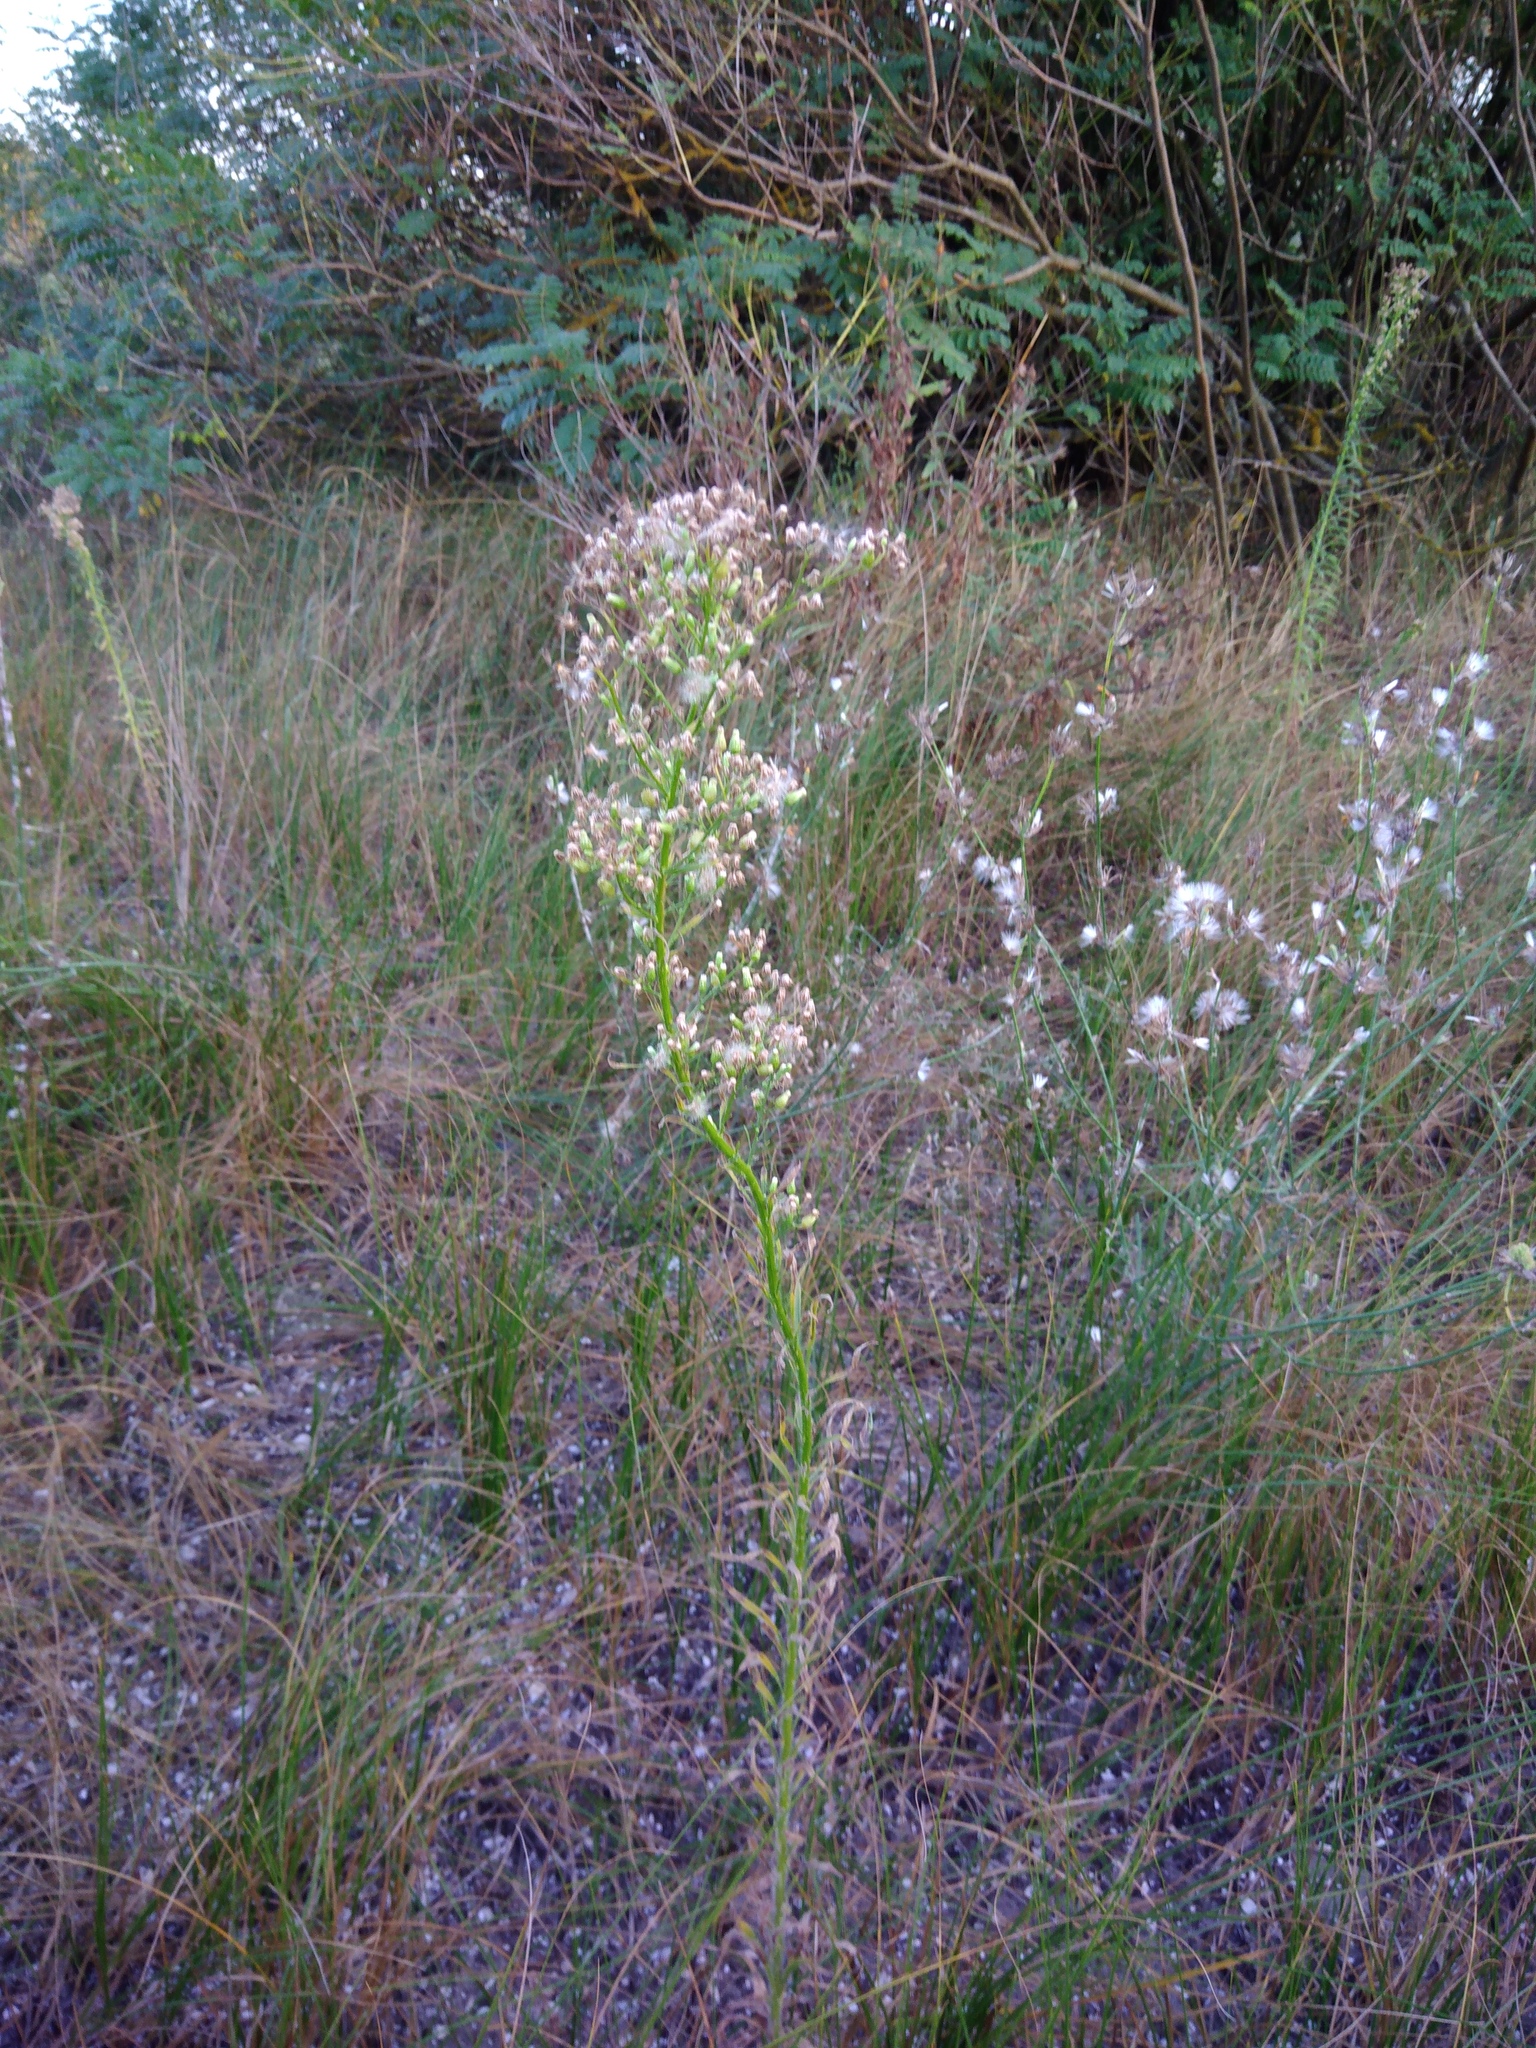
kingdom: Plantae
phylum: Tracheophyta
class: Magnoliopsida
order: Asterales
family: Asteraceae
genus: Erigeron
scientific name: Erigeron canadensis
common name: Canadian fleabane
